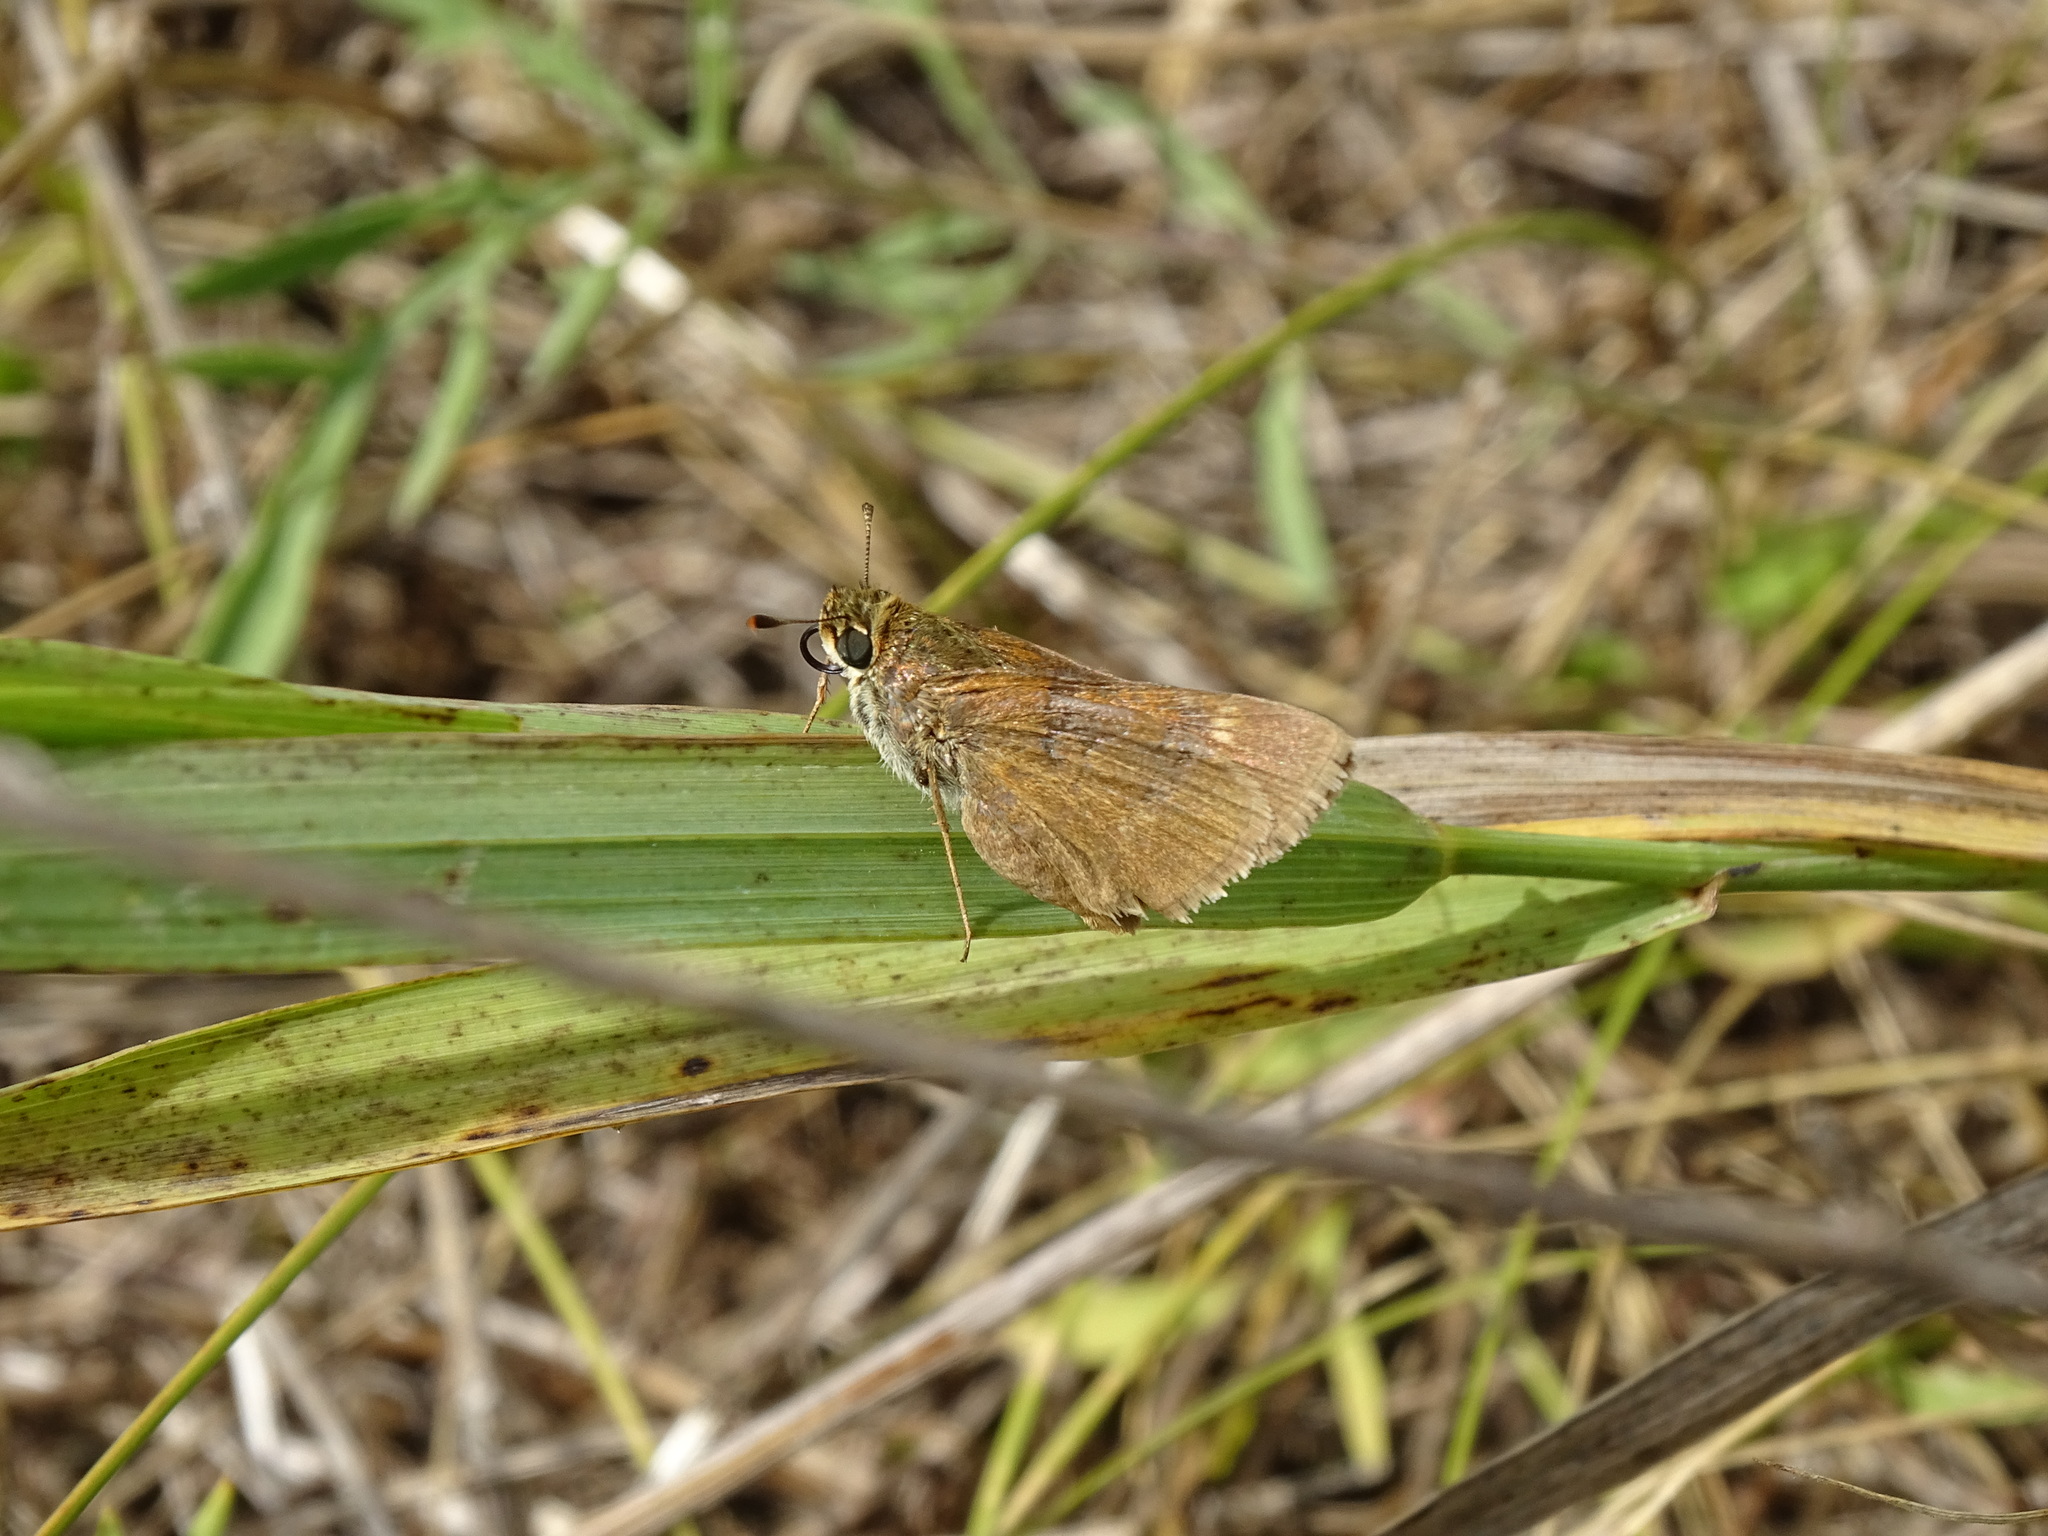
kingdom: Animalia
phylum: Arthropoda
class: Insecta
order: Lepidoptera
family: Hesperiidae
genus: Polites
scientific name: Polites origenes
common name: Crossline skipper
